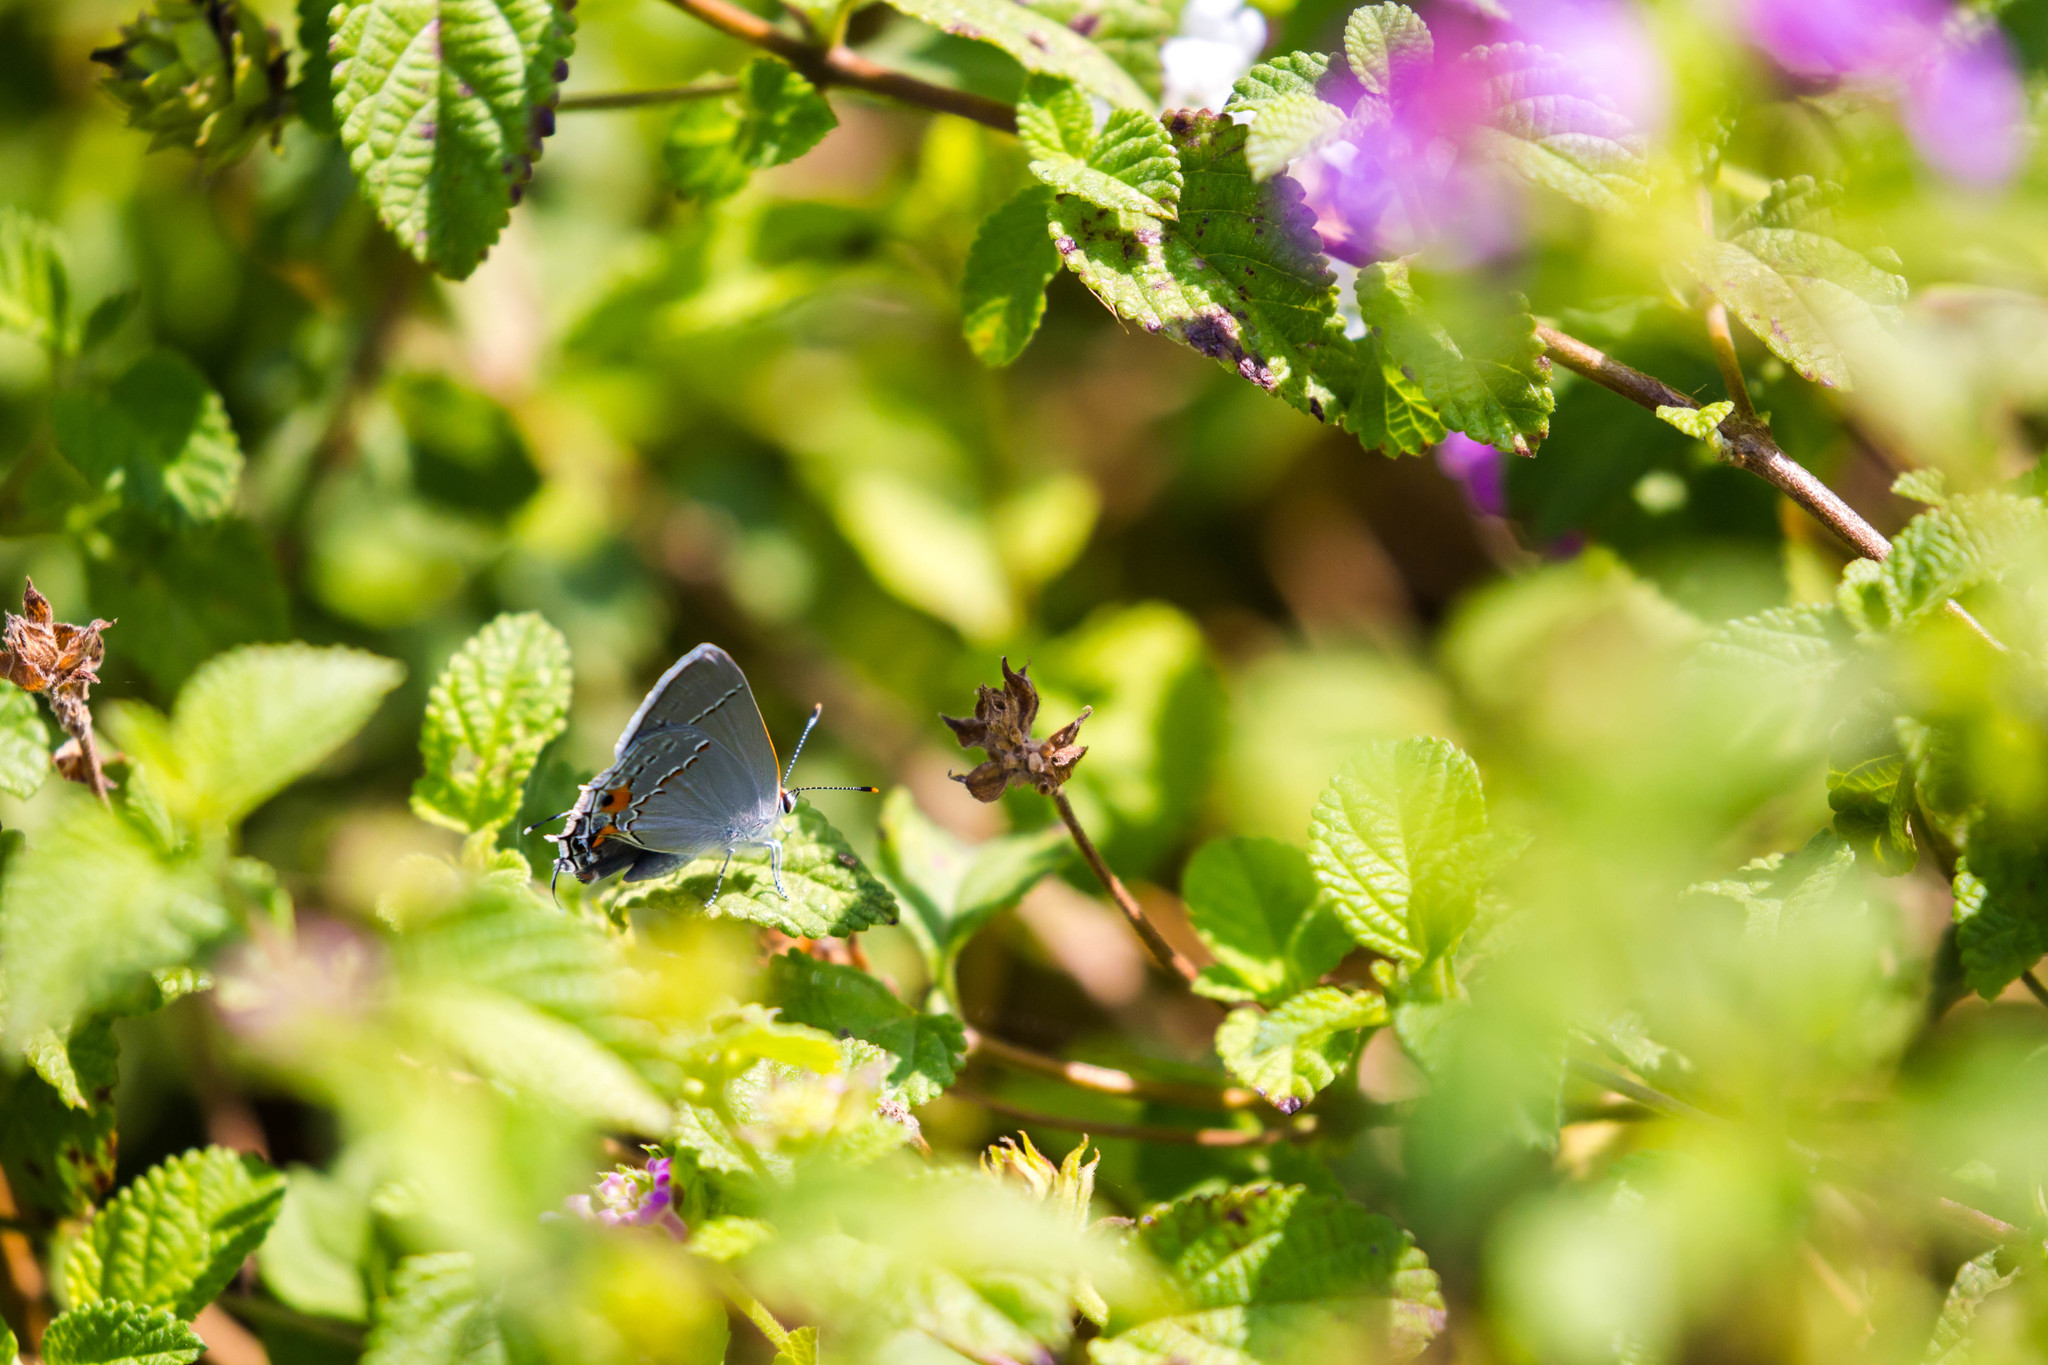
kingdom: Animalia
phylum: Arthropoda
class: Insecta
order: Lepidoptera
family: Lycaenidae
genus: Strymon
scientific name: Strymon melinus
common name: Gray hairstreak
